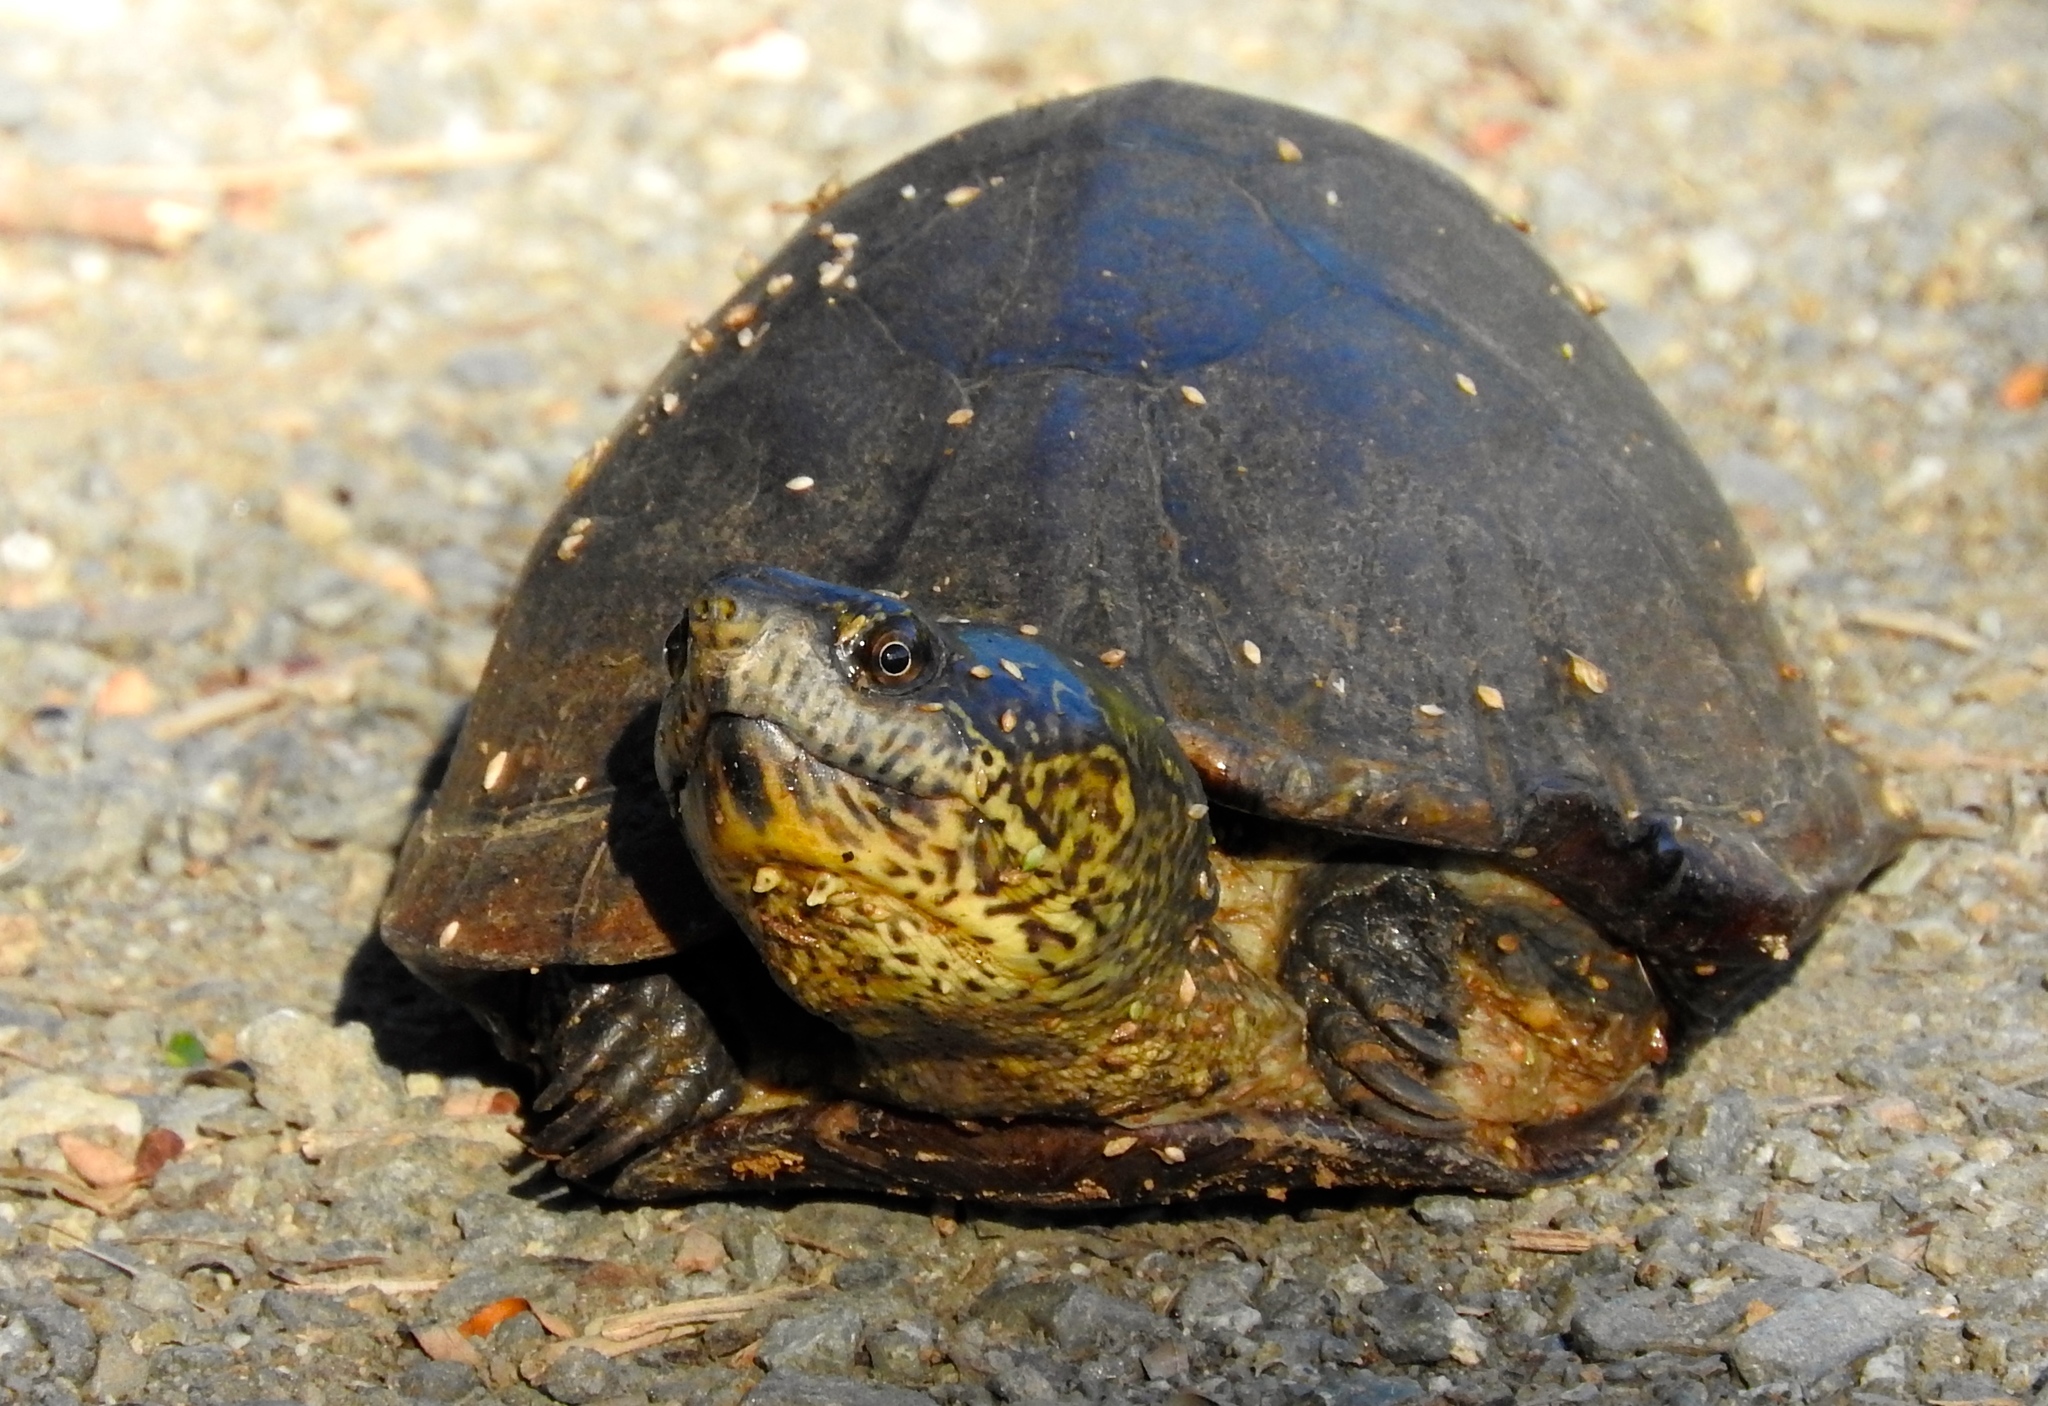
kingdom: Animalia
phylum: Chordata
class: Testudines
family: Kinosternidae
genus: Kinosternon
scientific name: Kinosternon integrum
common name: Mexican mud turtle
